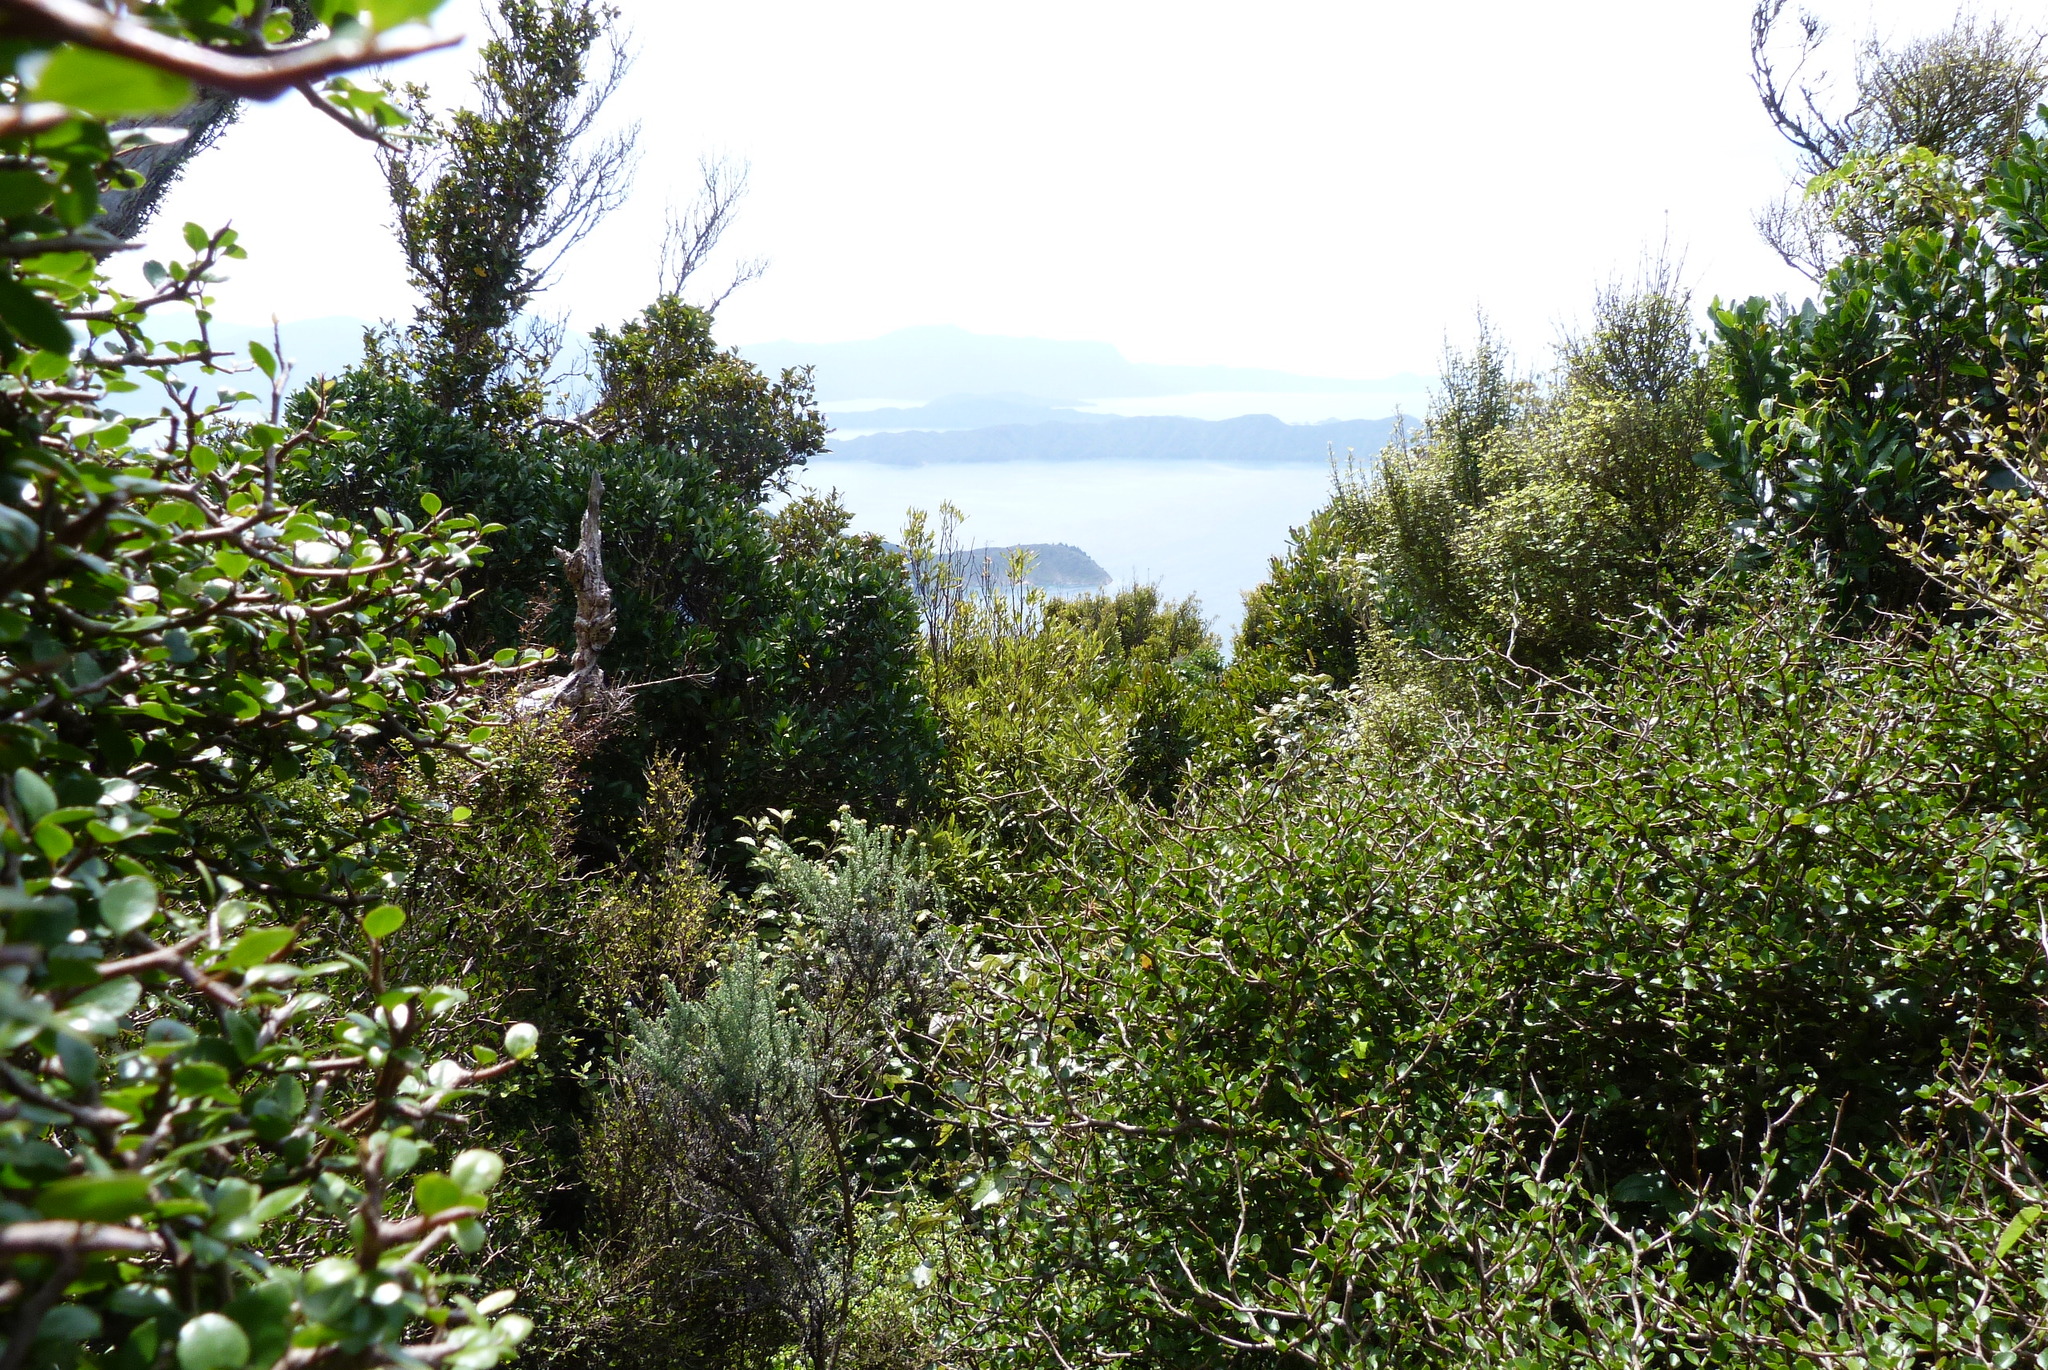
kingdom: Plantae
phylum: Tracheophyta
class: Magnoliopsida
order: Apiales
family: Araliaceae
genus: Raukaua
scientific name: Raukaua anomalus
